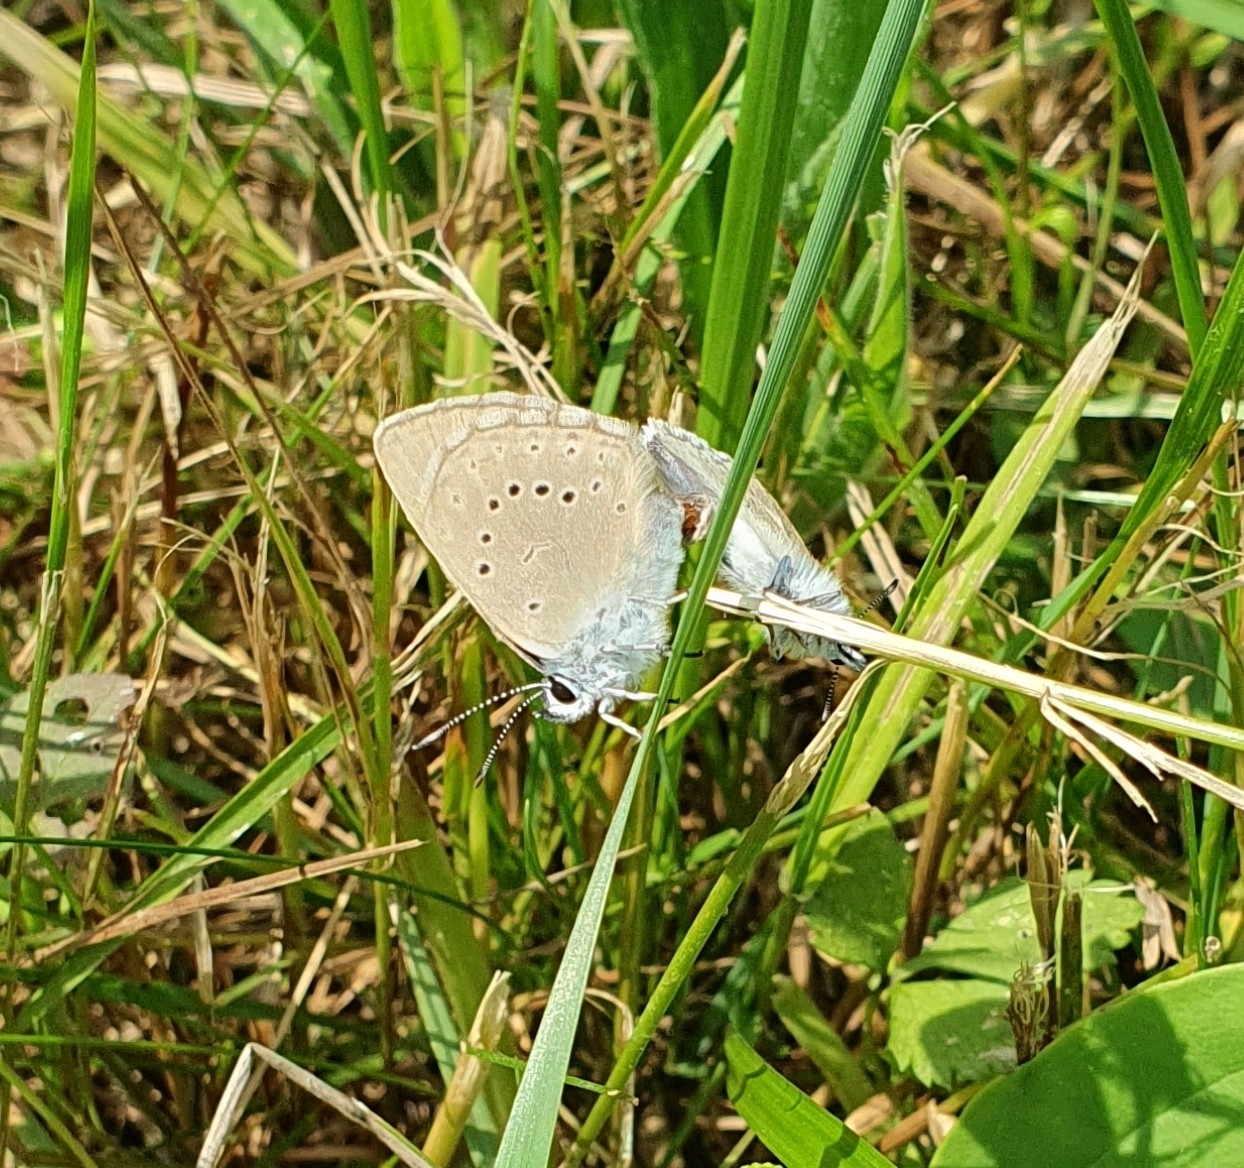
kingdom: Animalia
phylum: Arthropoda
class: Insecta
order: Lepidoptera
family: Lycaenidae
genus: Phengaris
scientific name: Phengaris teleius
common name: Scarce large blue
